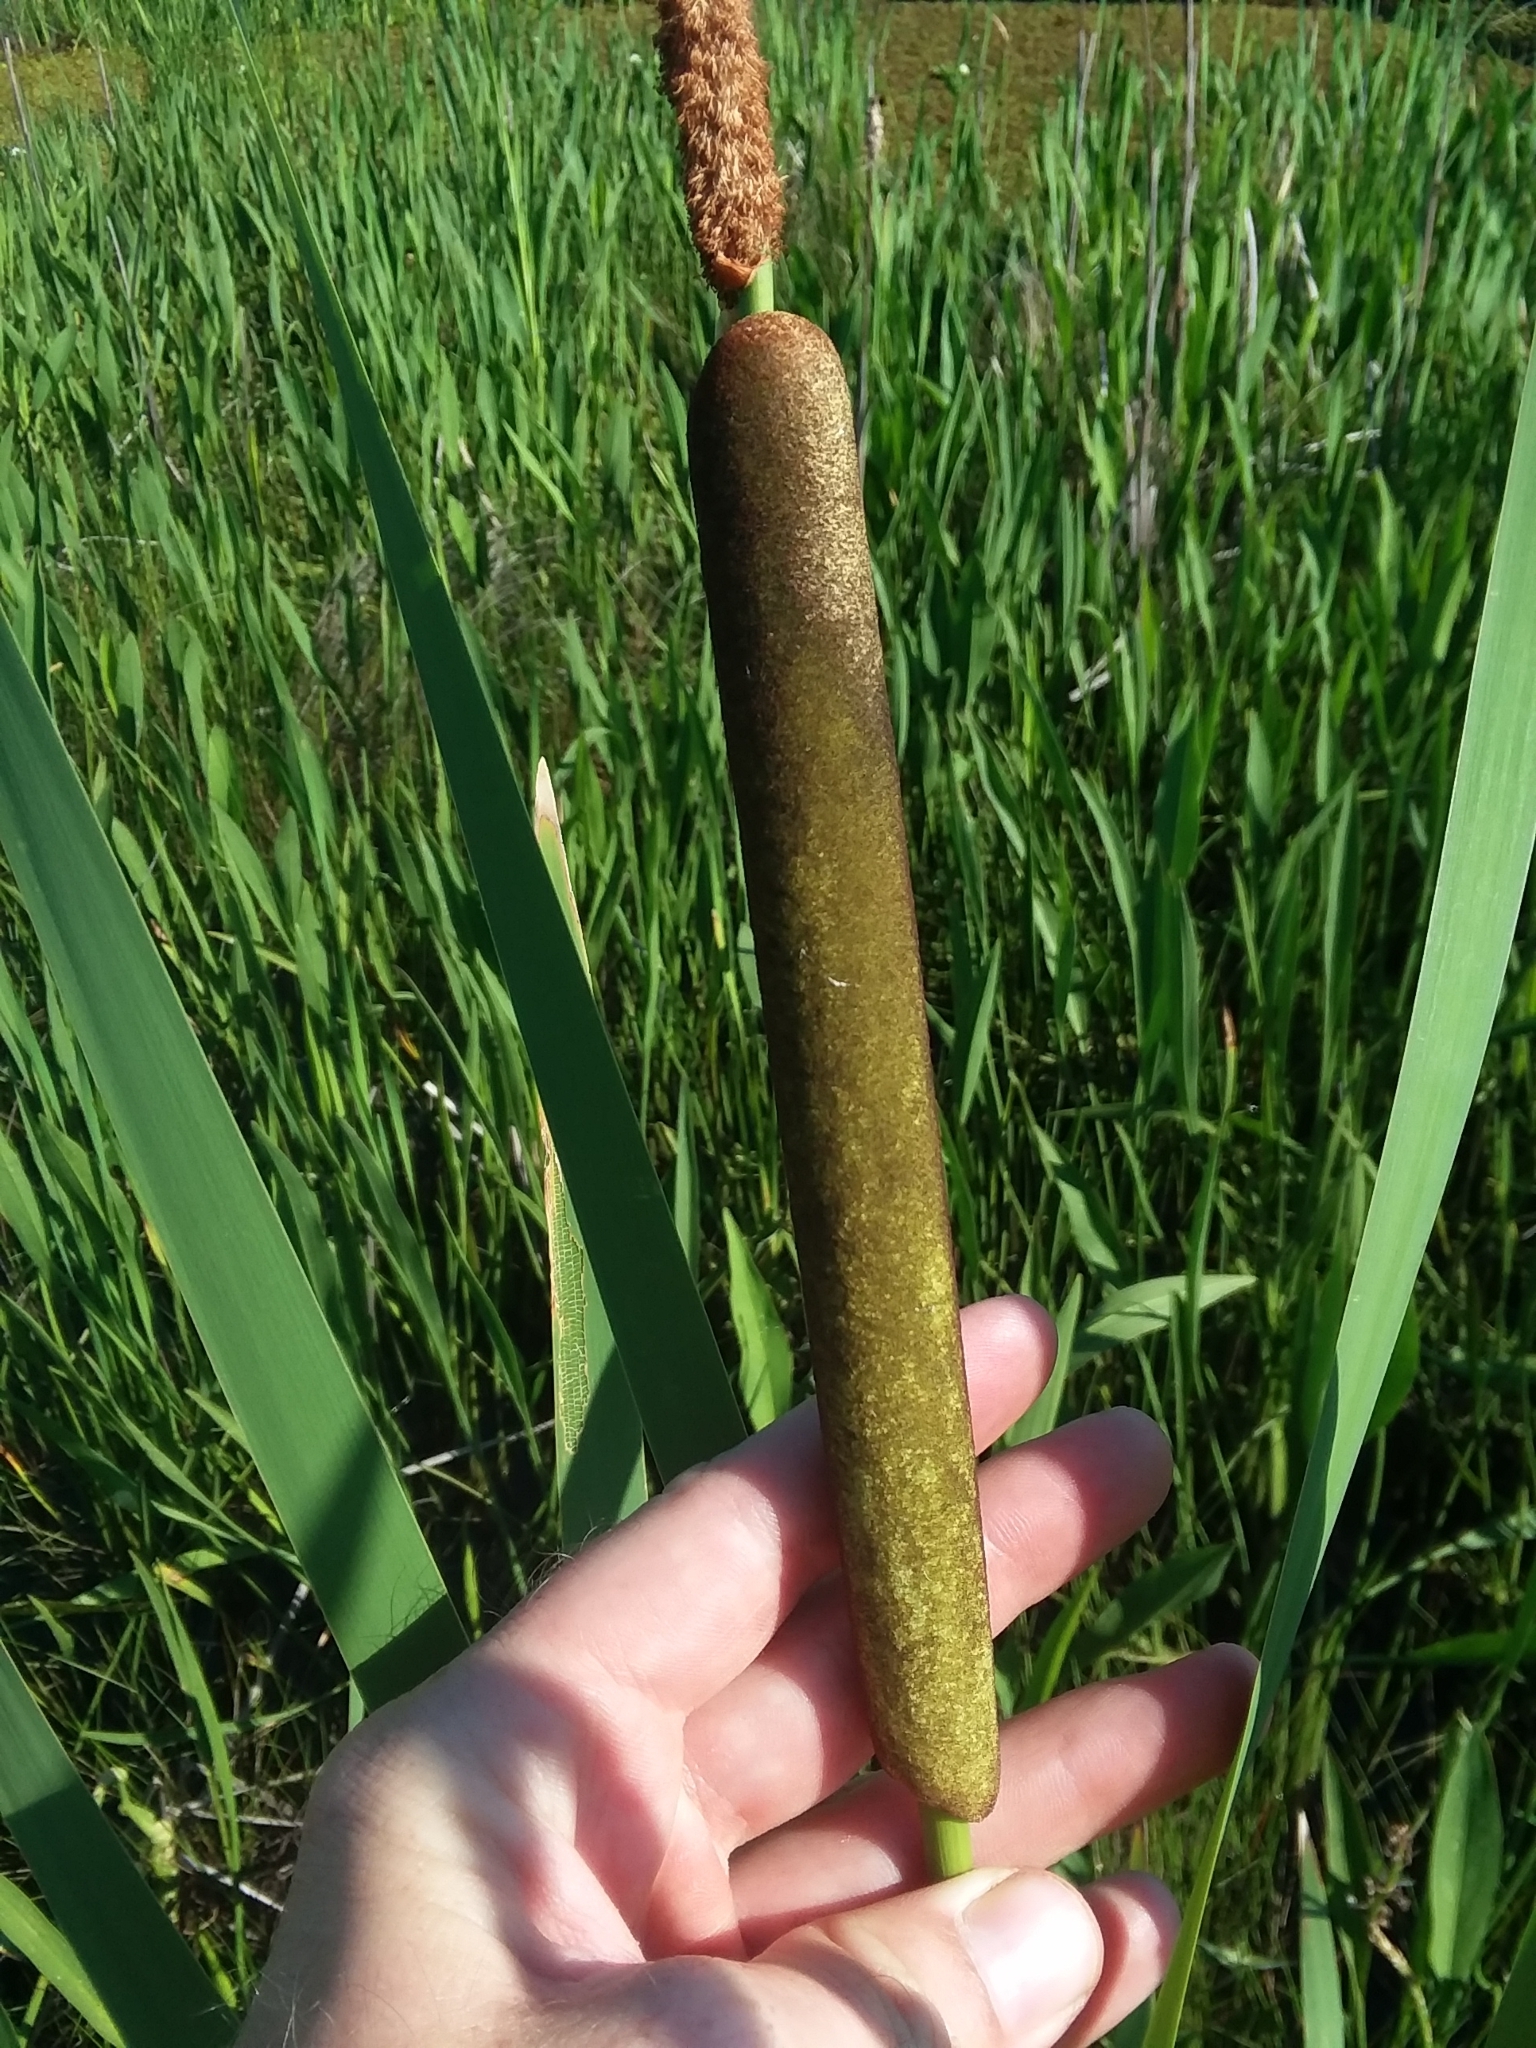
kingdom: Plantae
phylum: Tracheophyta
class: Liliopsida
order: Poales
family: Typhaceae
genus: Typha
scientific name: Typha latifolia
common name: Broadleaf cattail
